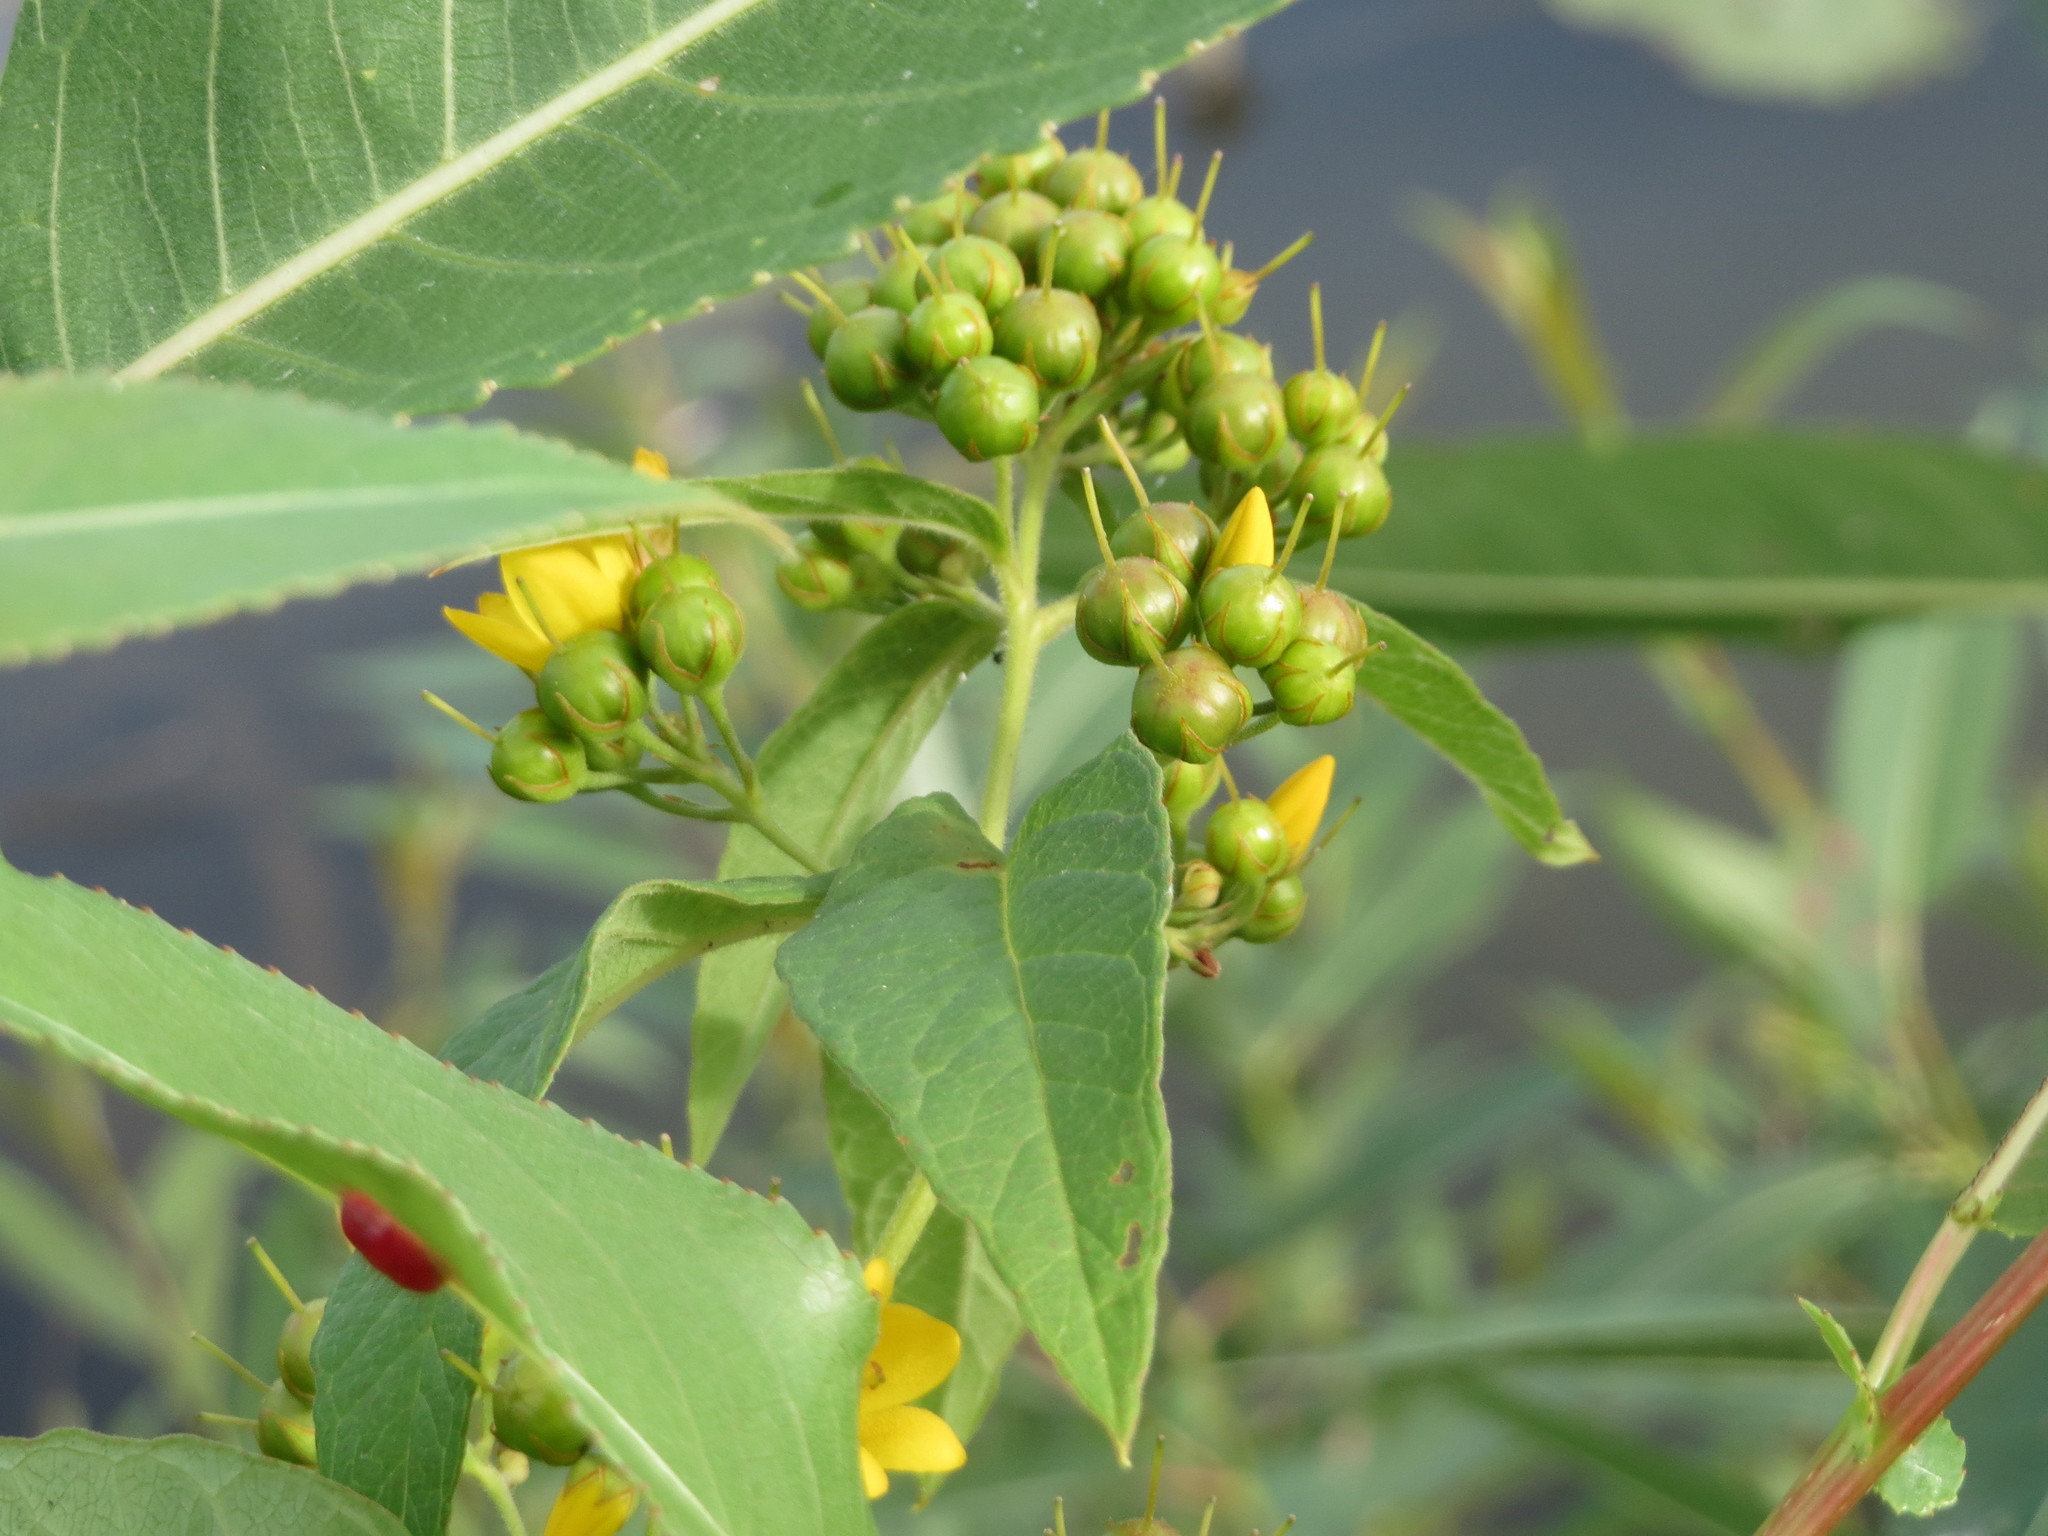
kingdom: Plantae
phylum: Tracheophyta
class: Magnoliopsida
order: Ericales
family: Primulaceae
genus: Lysimachia
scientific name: Lysimachia vulgaris
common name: Yellow loosestrife
